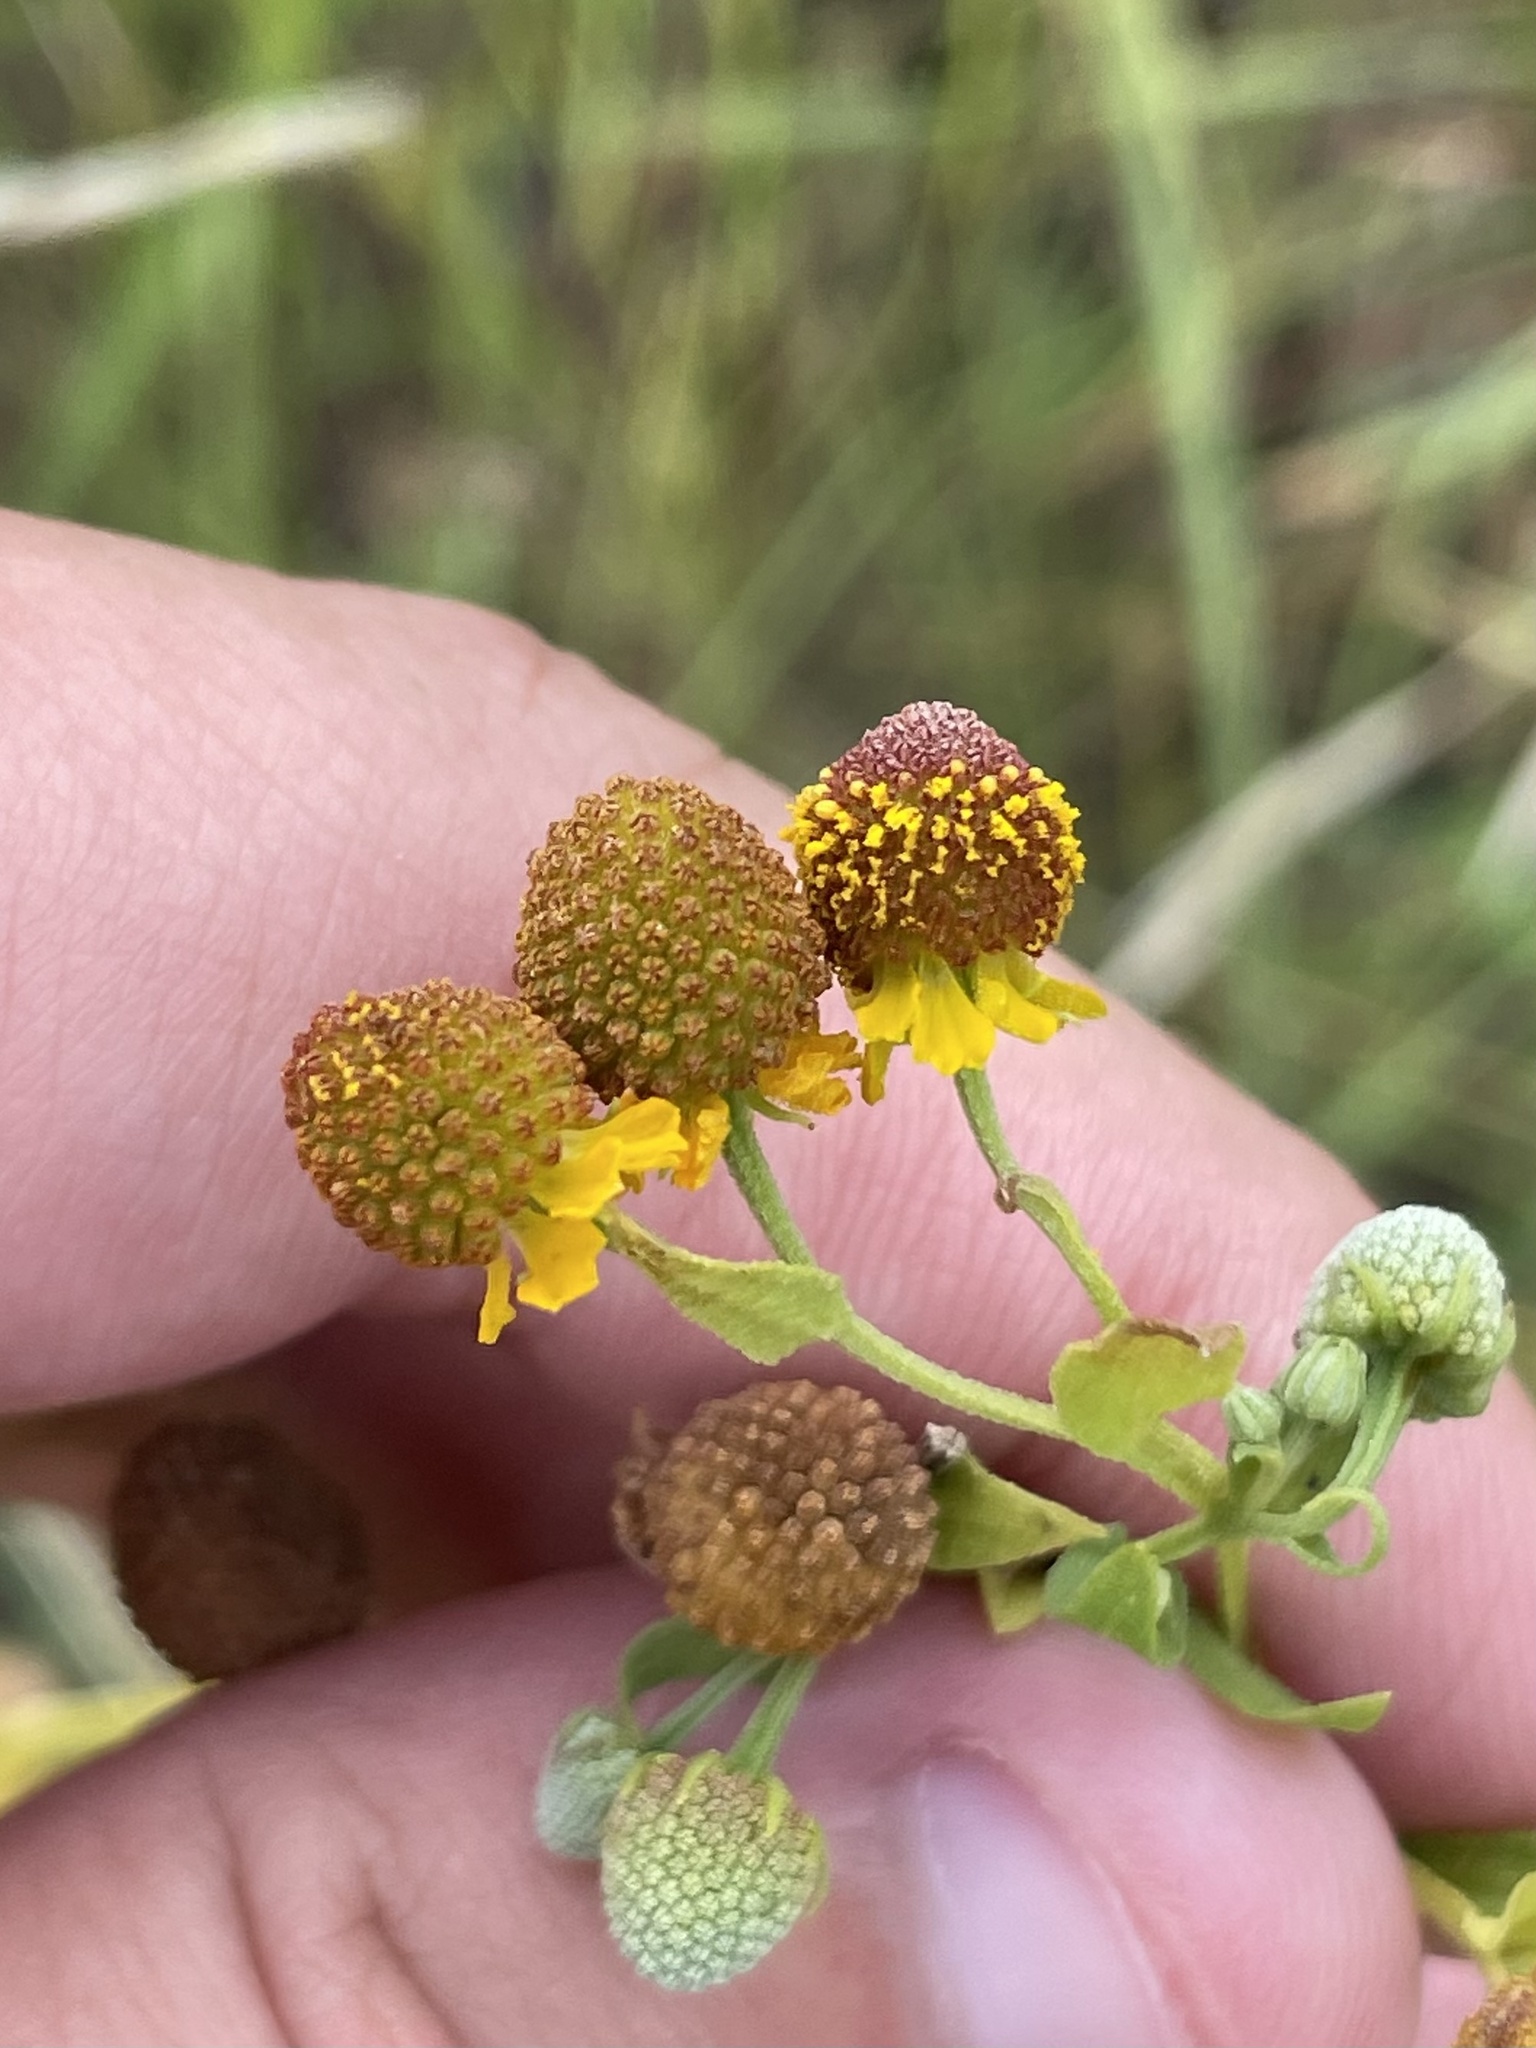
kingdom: Plantae
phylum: Tracheophyta
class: Magnoliopsida
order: Asterales
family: Asteraceae
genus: Helenium
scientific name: Helenium microcephalum
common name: Smallhead sneezeweed
